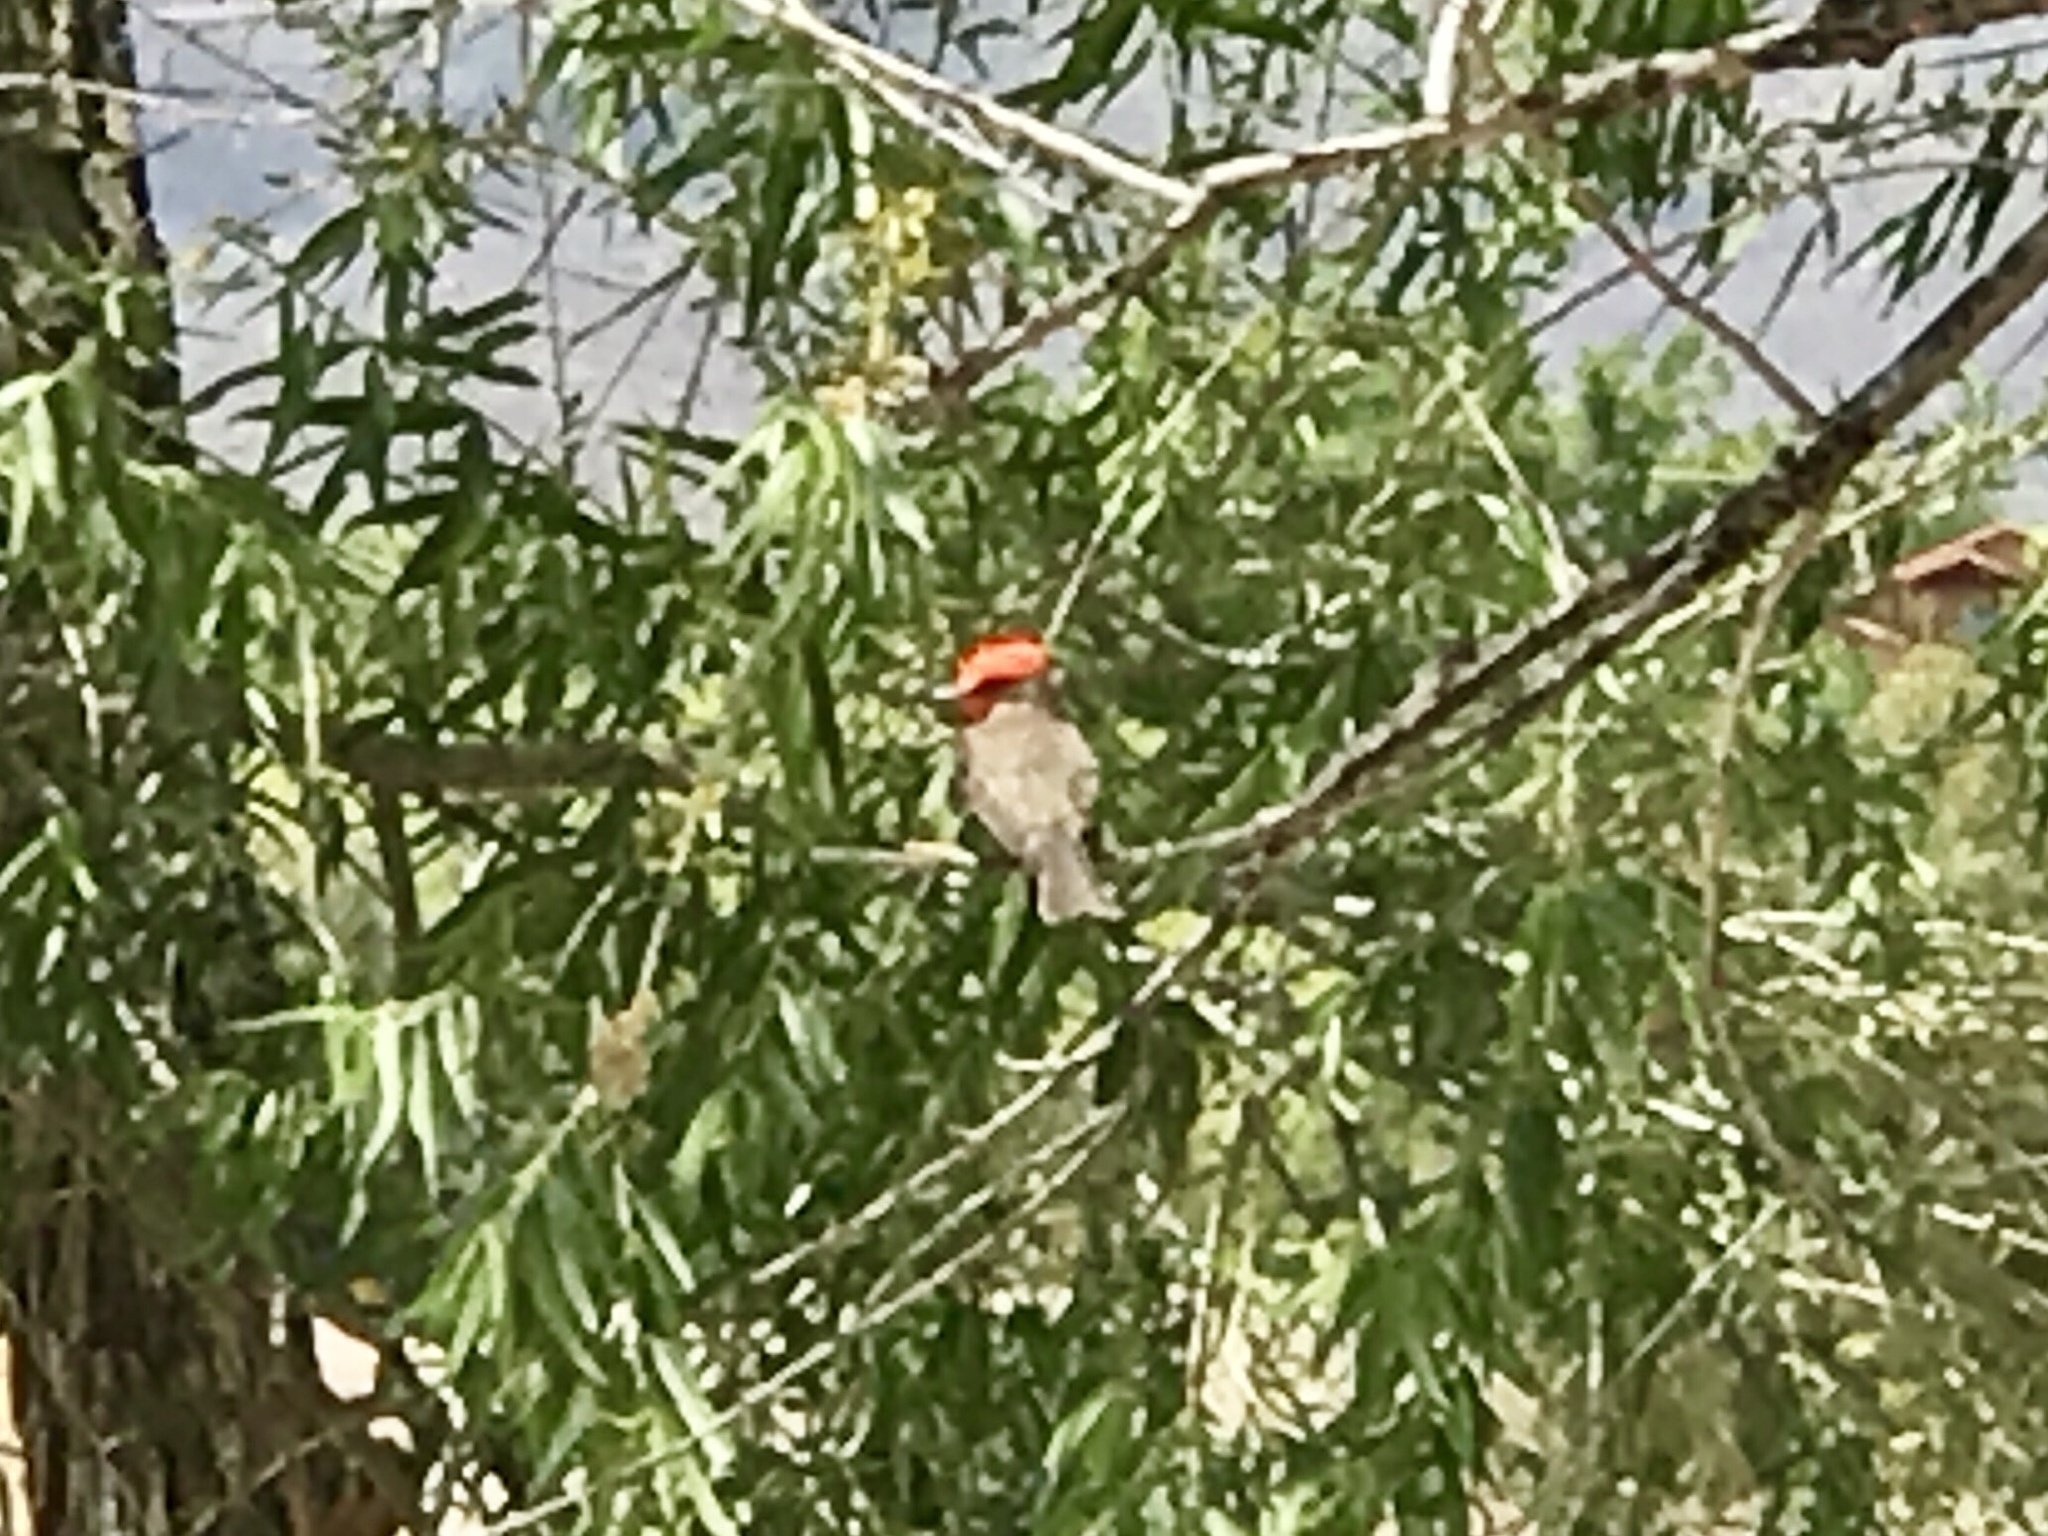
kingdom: Animalia
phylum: Chordata
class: Aves
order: Passeriformes
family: Tyrannidae
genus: Pyrocephalus
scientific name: Pyrocephalus rubinus
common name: Vermilion flycatcher
